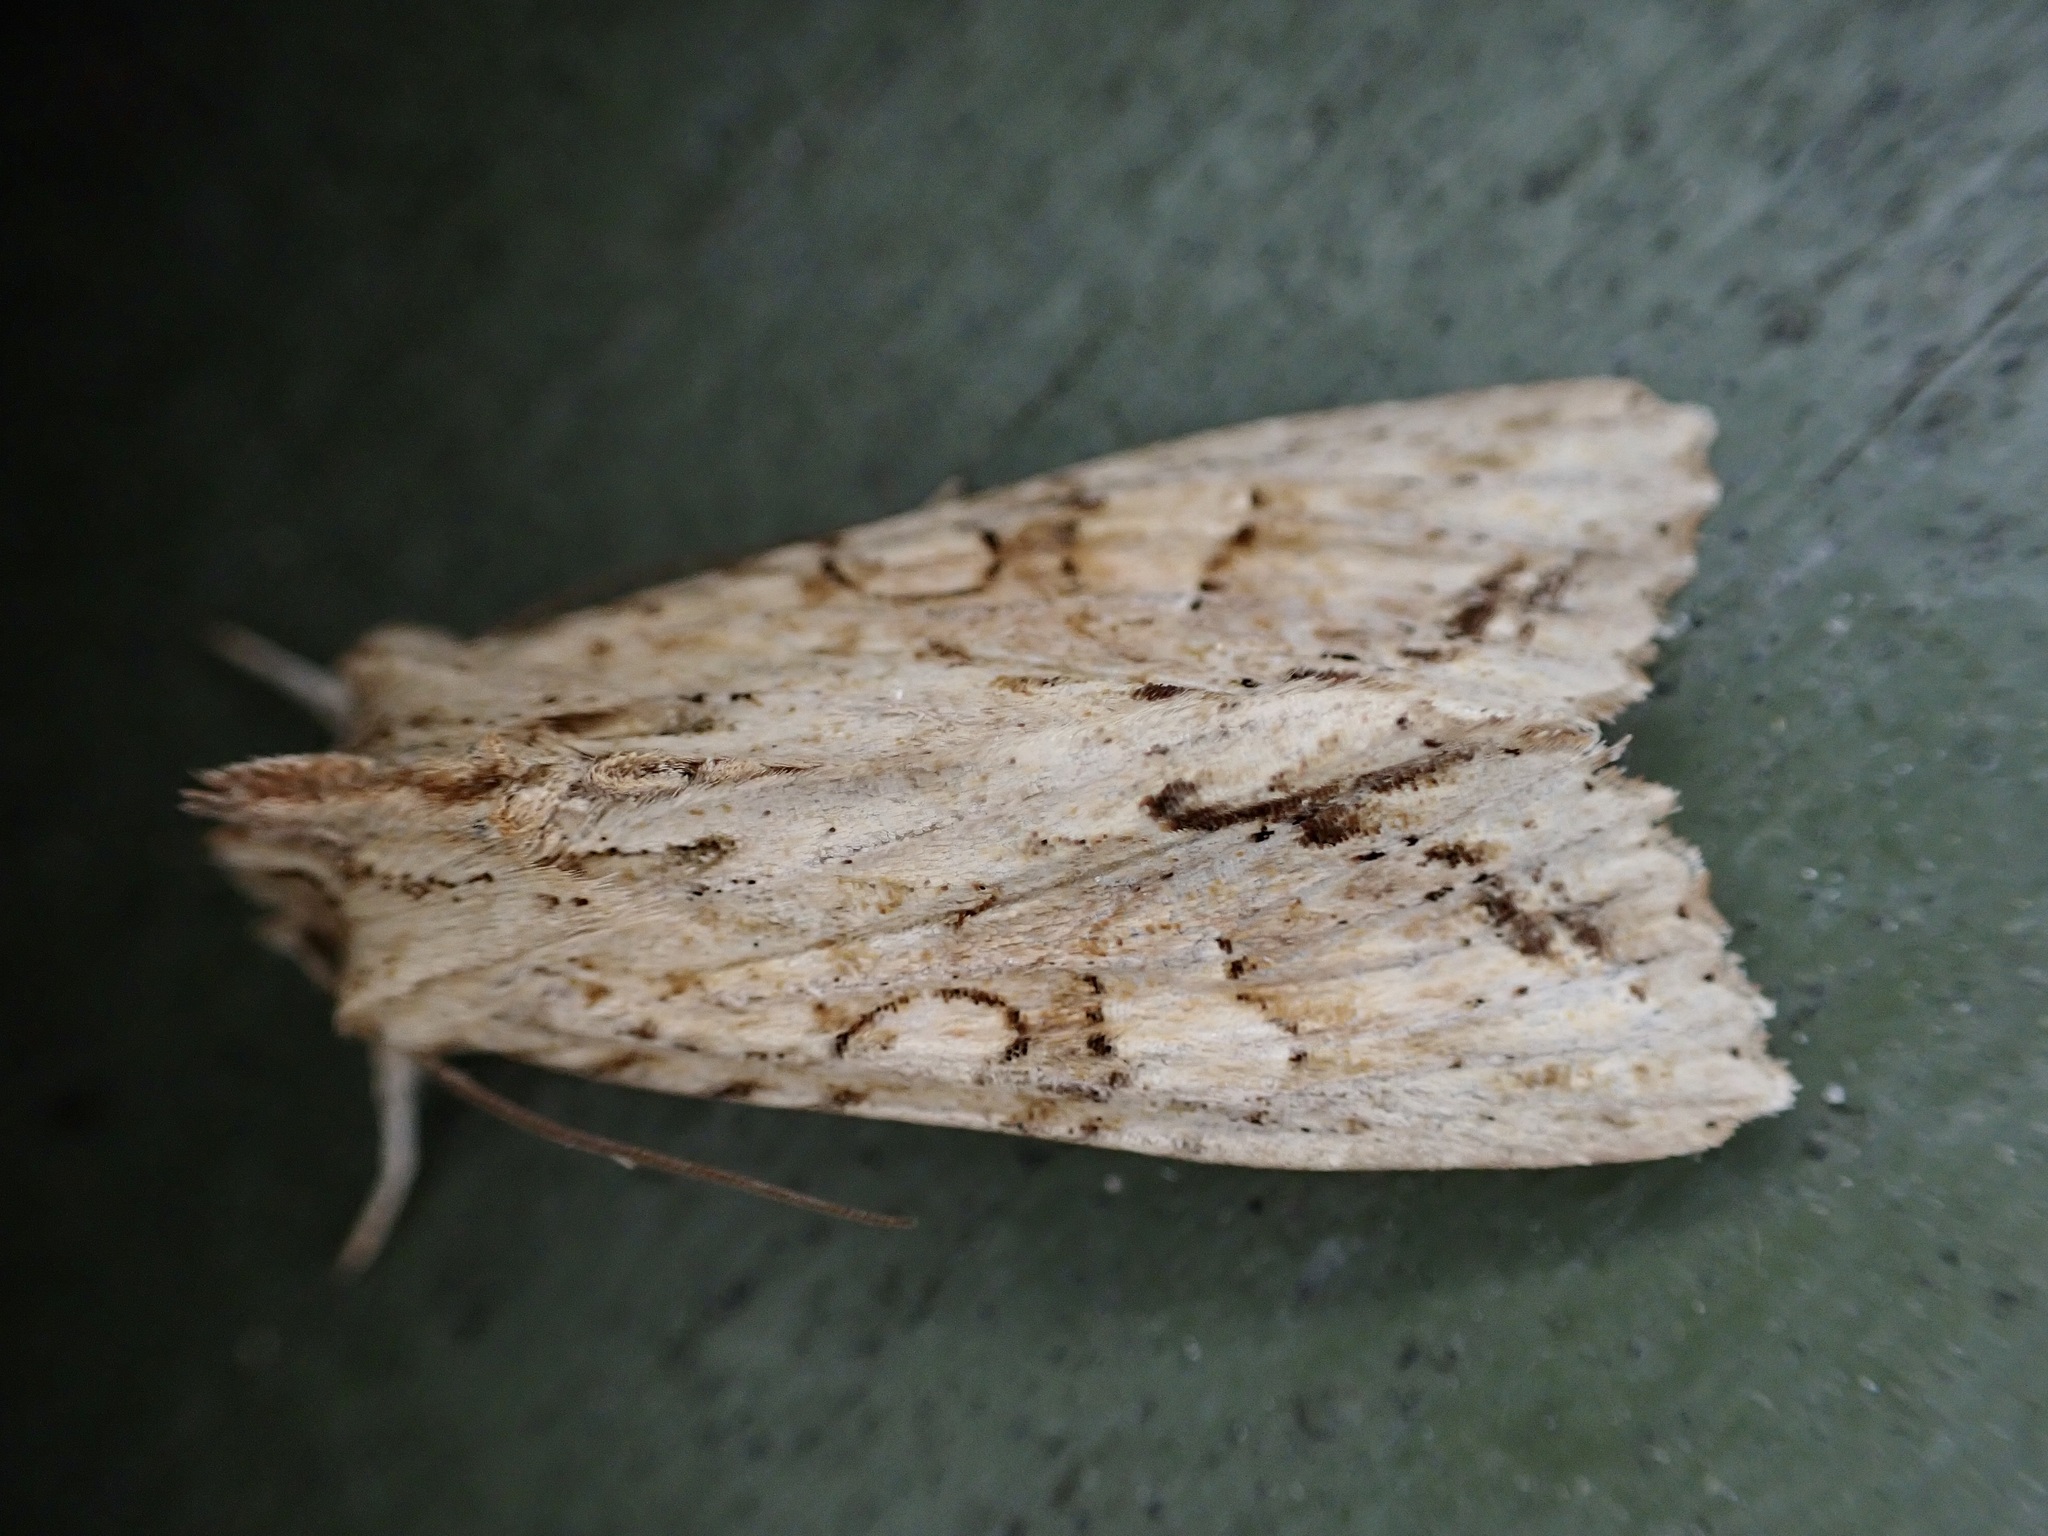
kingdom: Animalia
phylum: Arthropoda
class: Insecta
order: Lepidoptera
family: Noctuidae
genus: Ichneutica
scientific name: Ichneutica mollis
